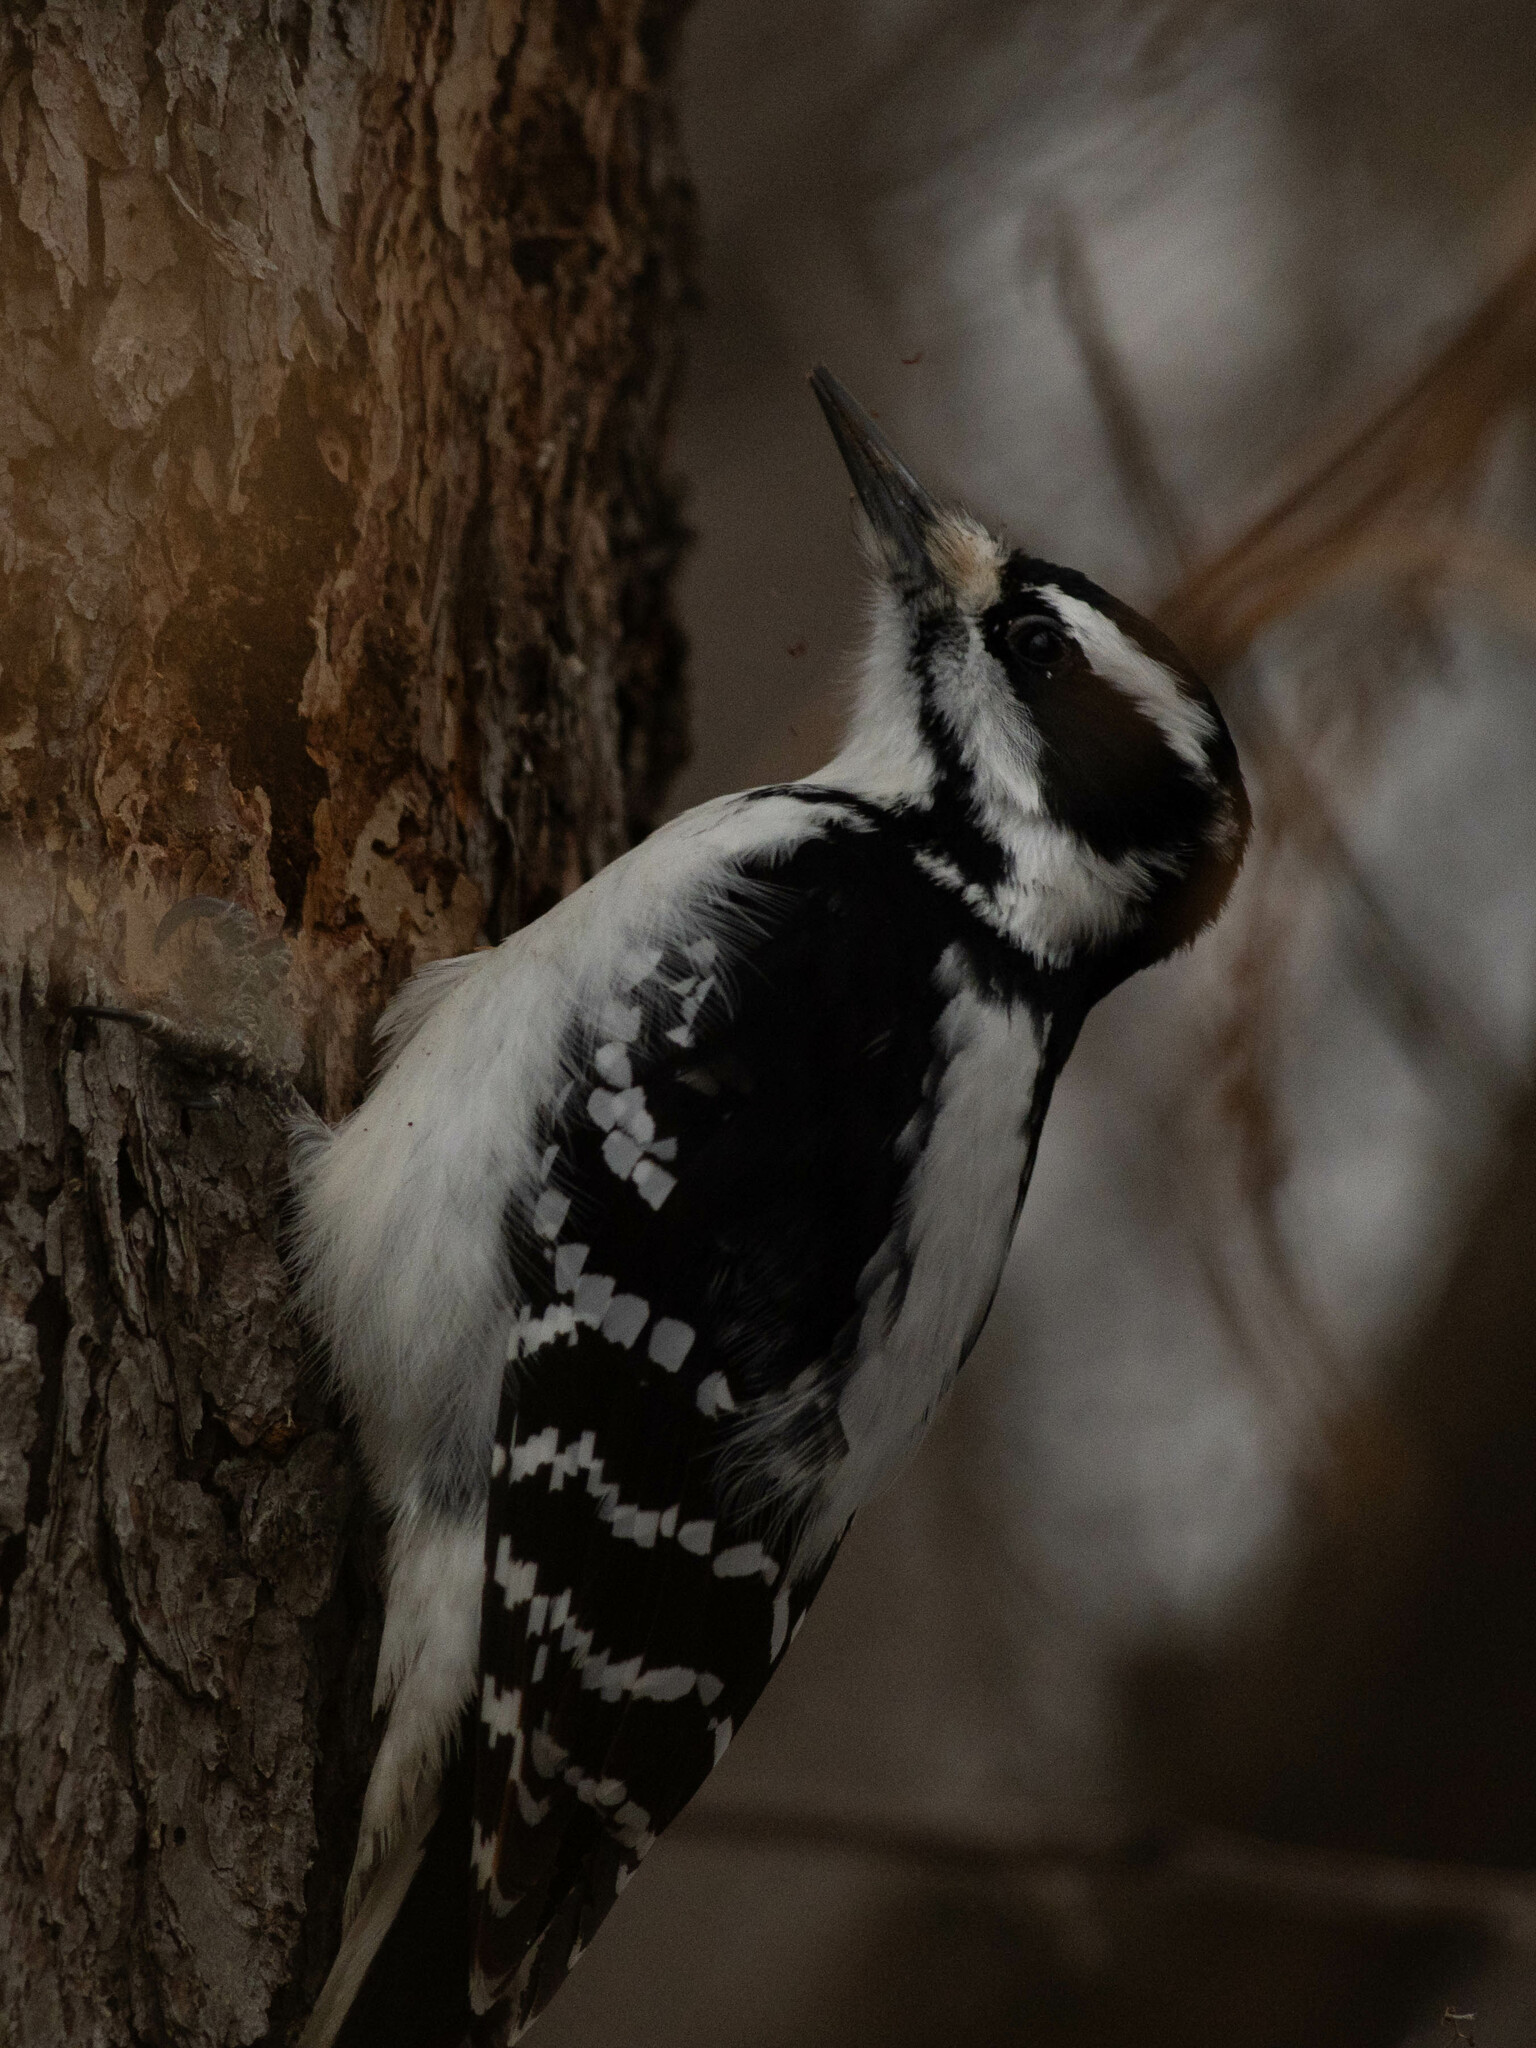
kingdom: Animalia
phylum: Chordata
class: Aves
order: Piciformes
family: Picidae
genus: Leuconotopicus
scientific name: Leuconotopicus villosus
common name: Hairy woodpecker
